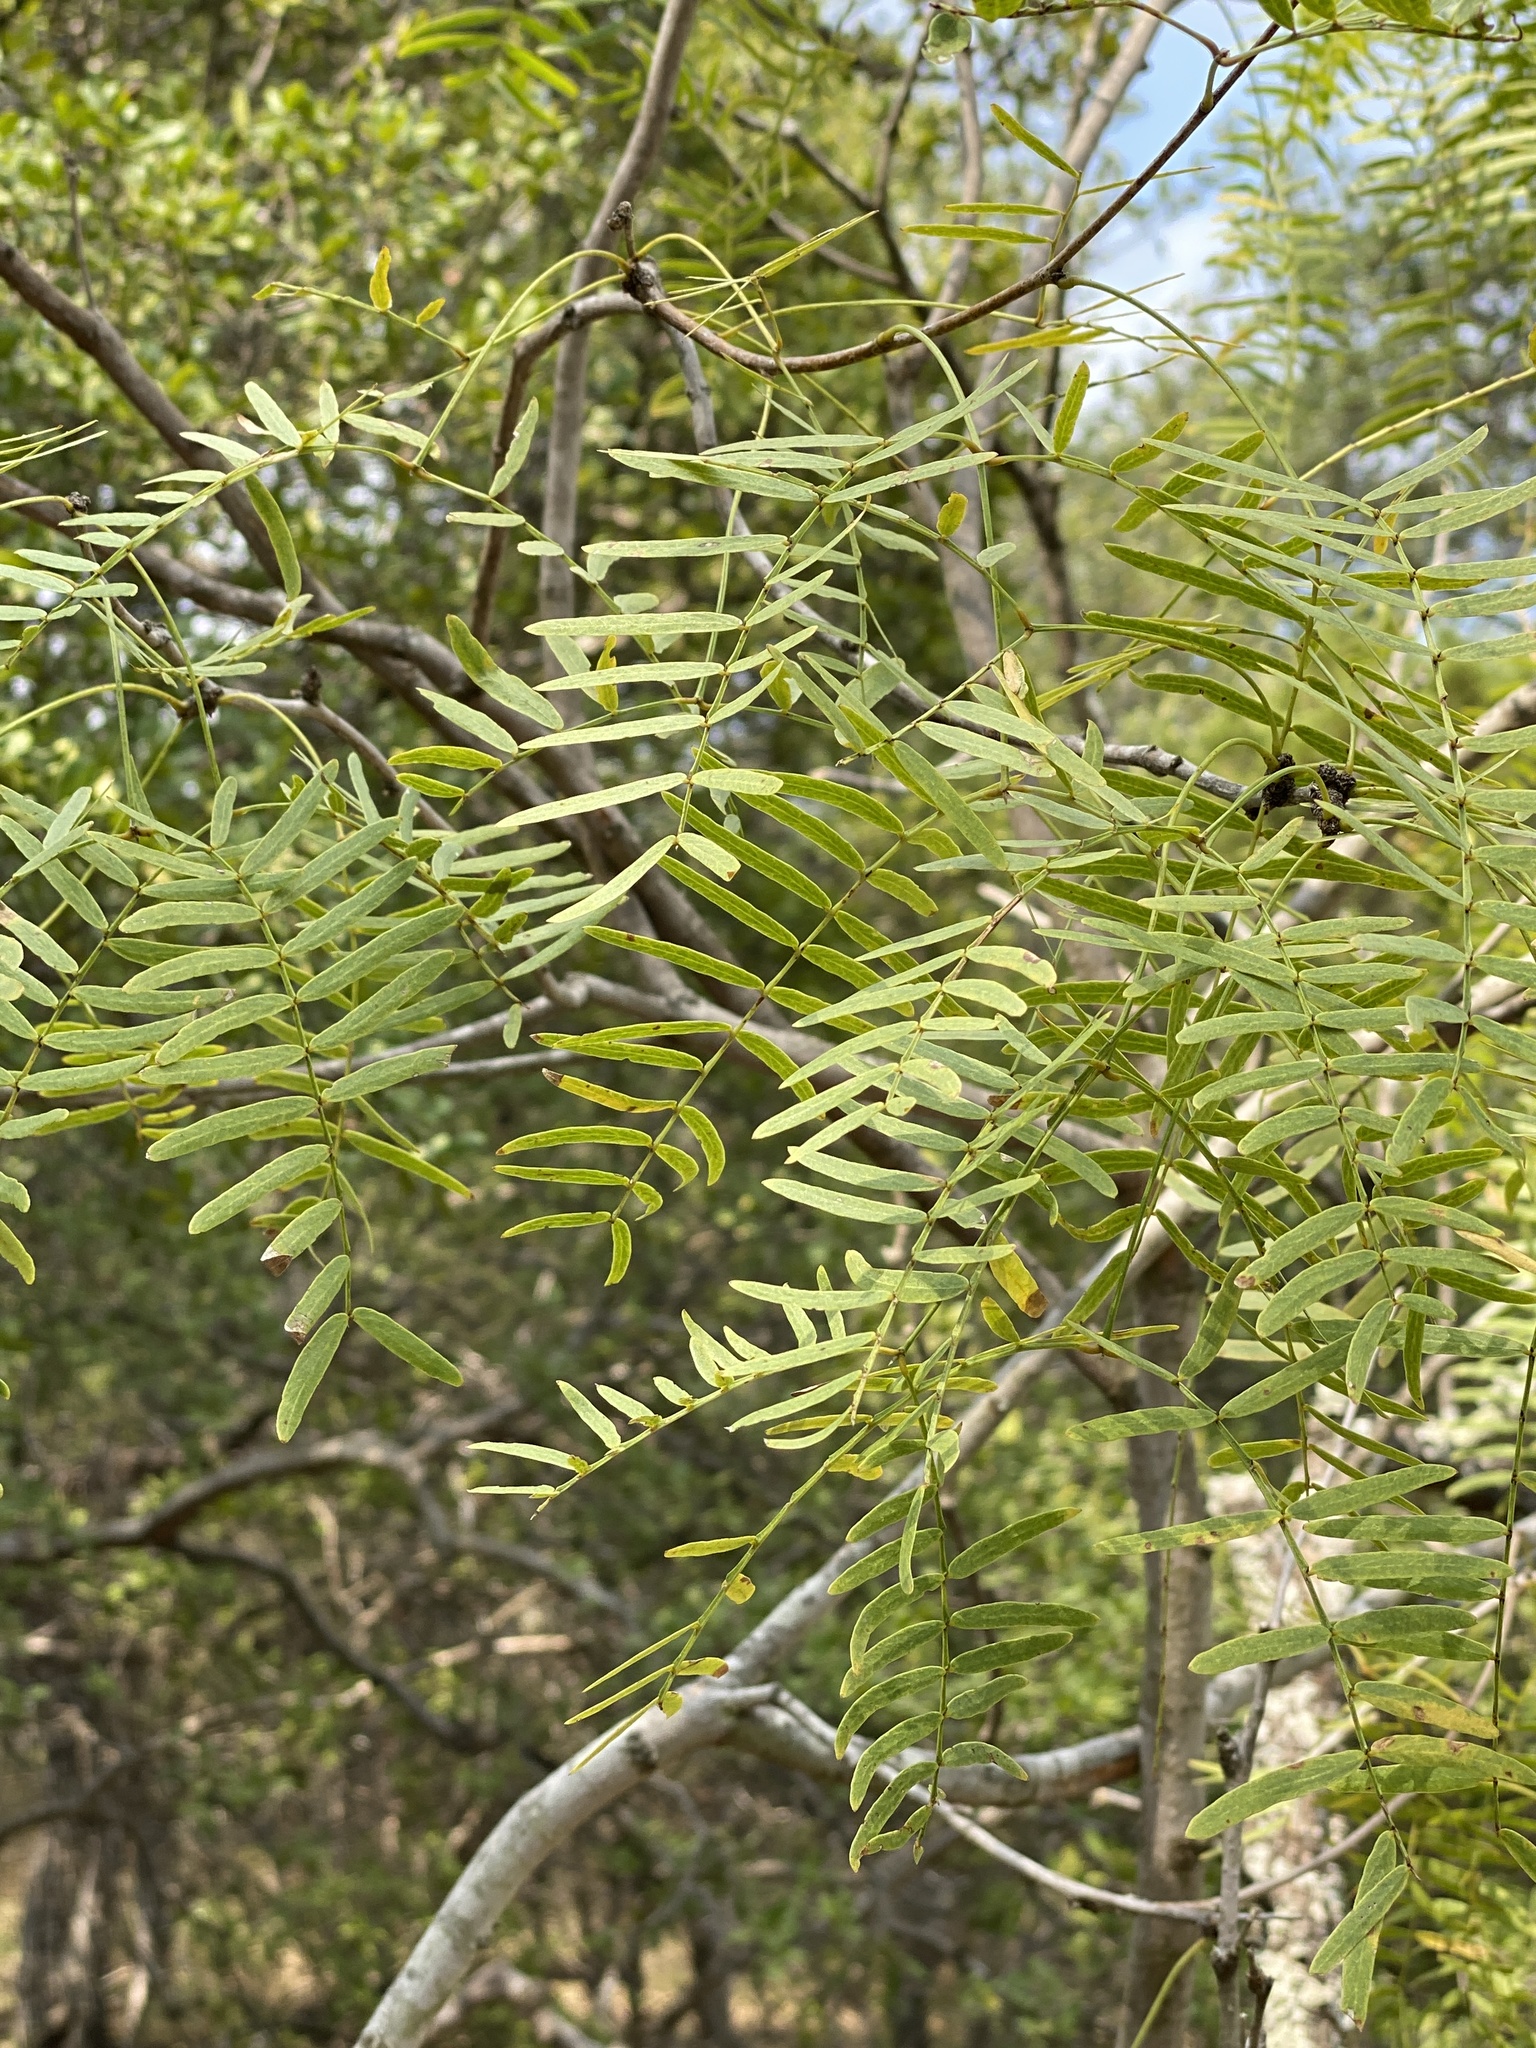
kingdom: Plantae
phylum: Tracheophyta
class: Magnoliopsida
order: Fabales
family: Fabaceae
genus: Prosopis
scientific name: Prosopis glandulosa
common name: Honey mesquite
